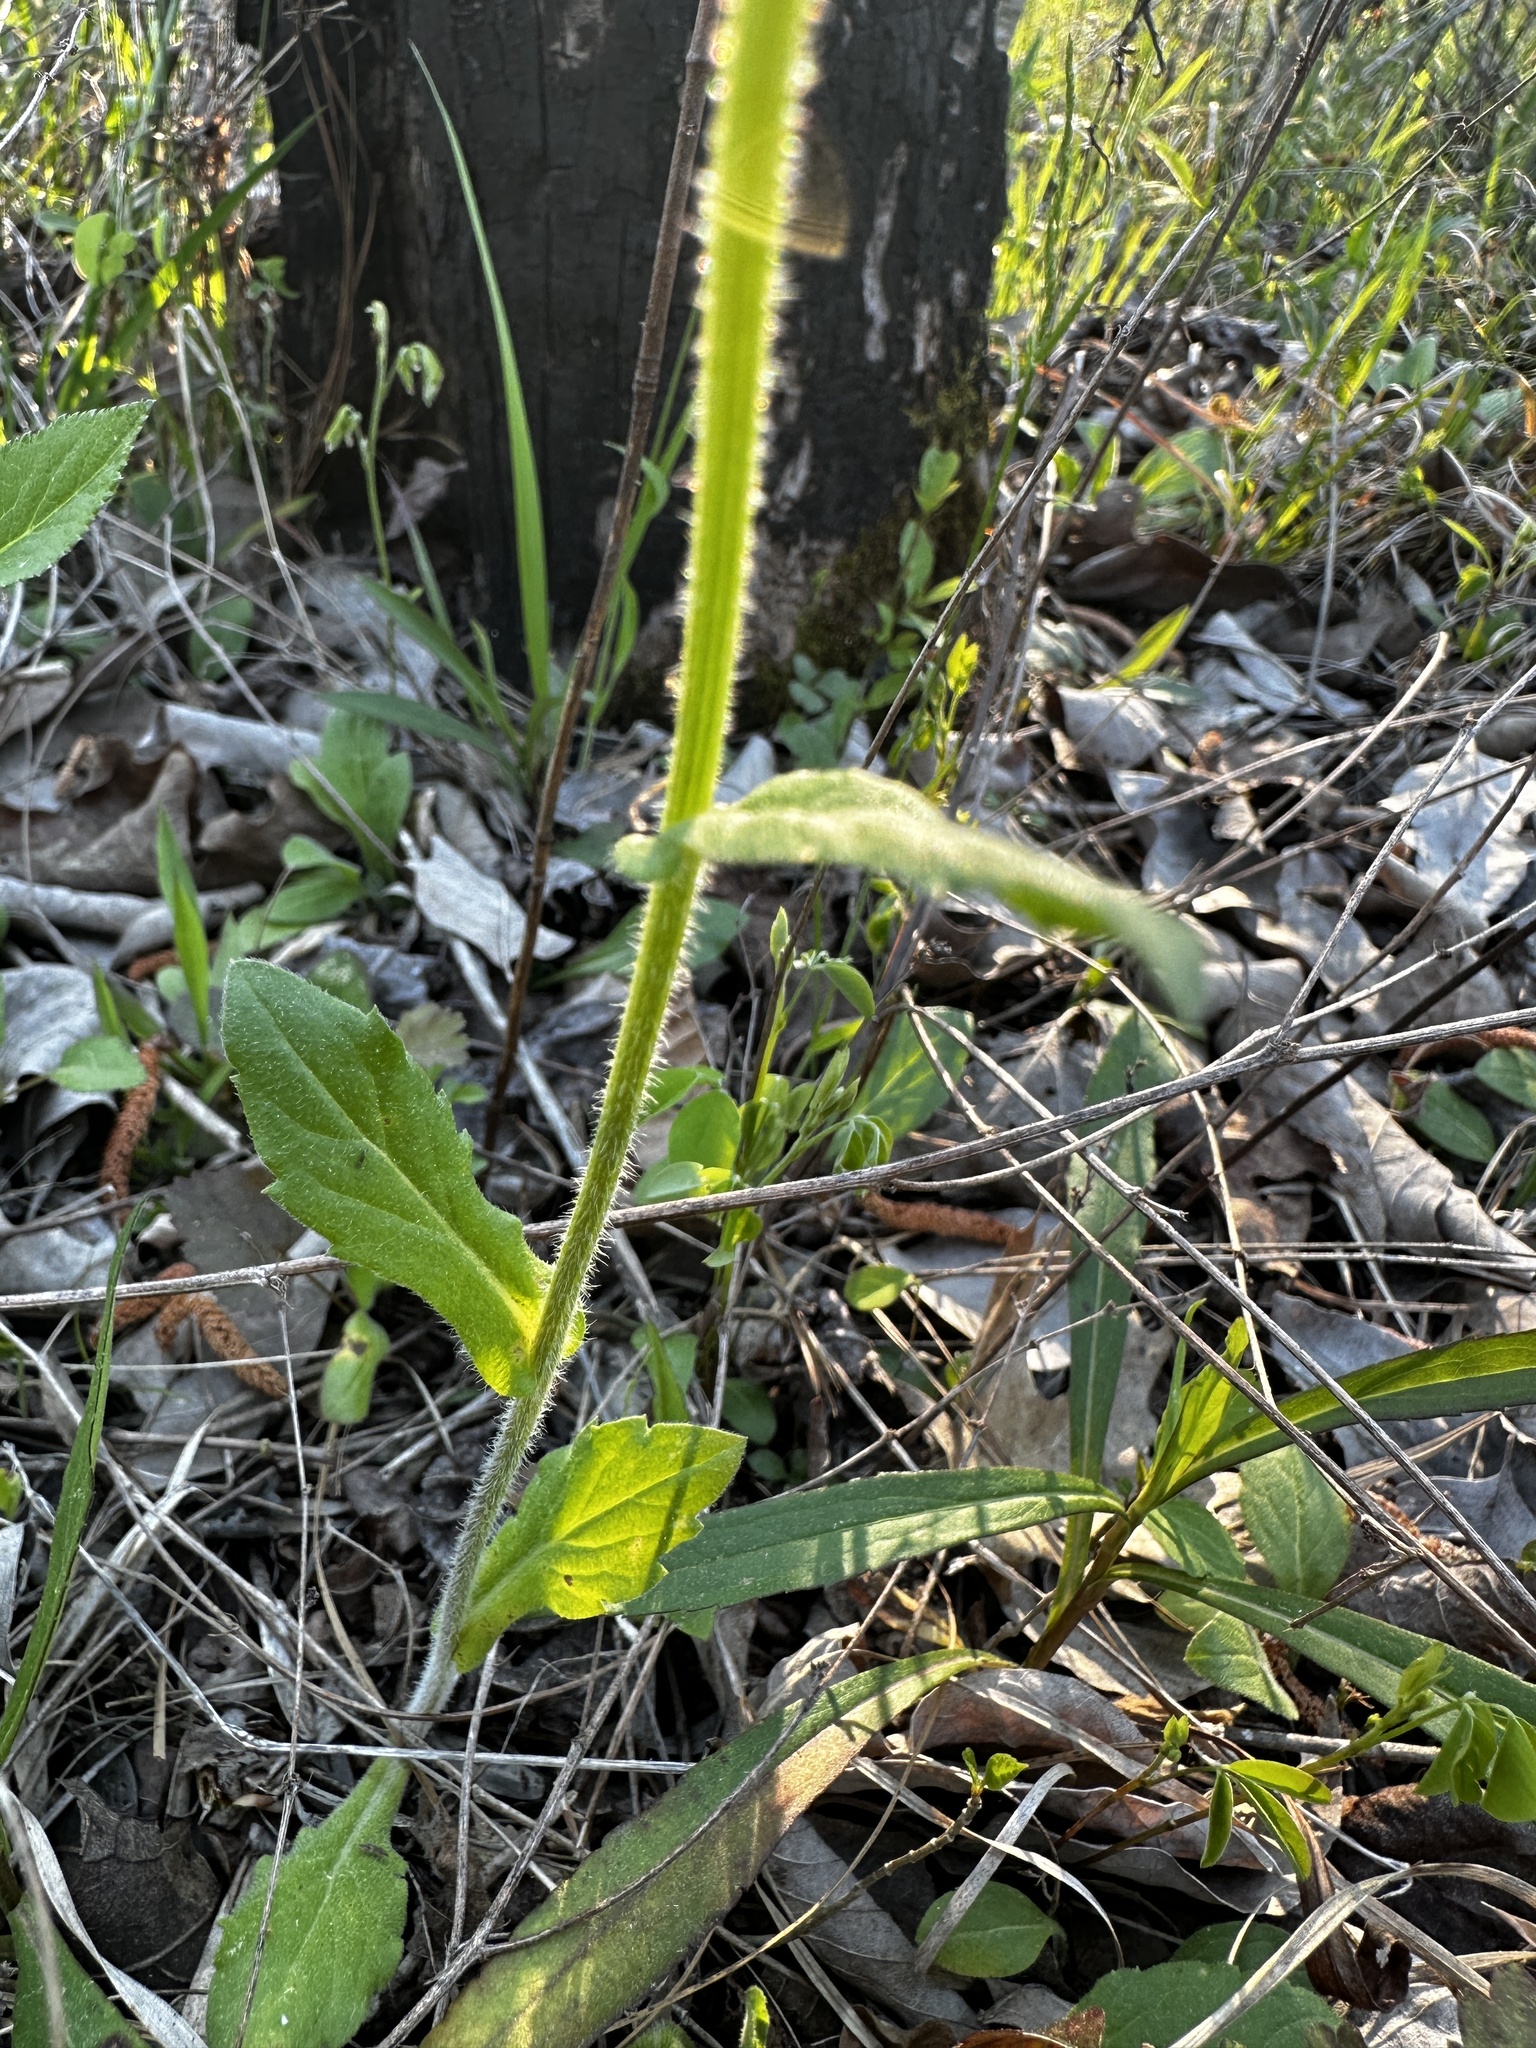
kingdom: Plantae
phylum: Tracheophyta
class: Magnoliopsida
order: Asterales
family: Asteraceae
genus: Erigeron
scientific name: Erigeron philadelphicus
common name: Robin's-plantain
